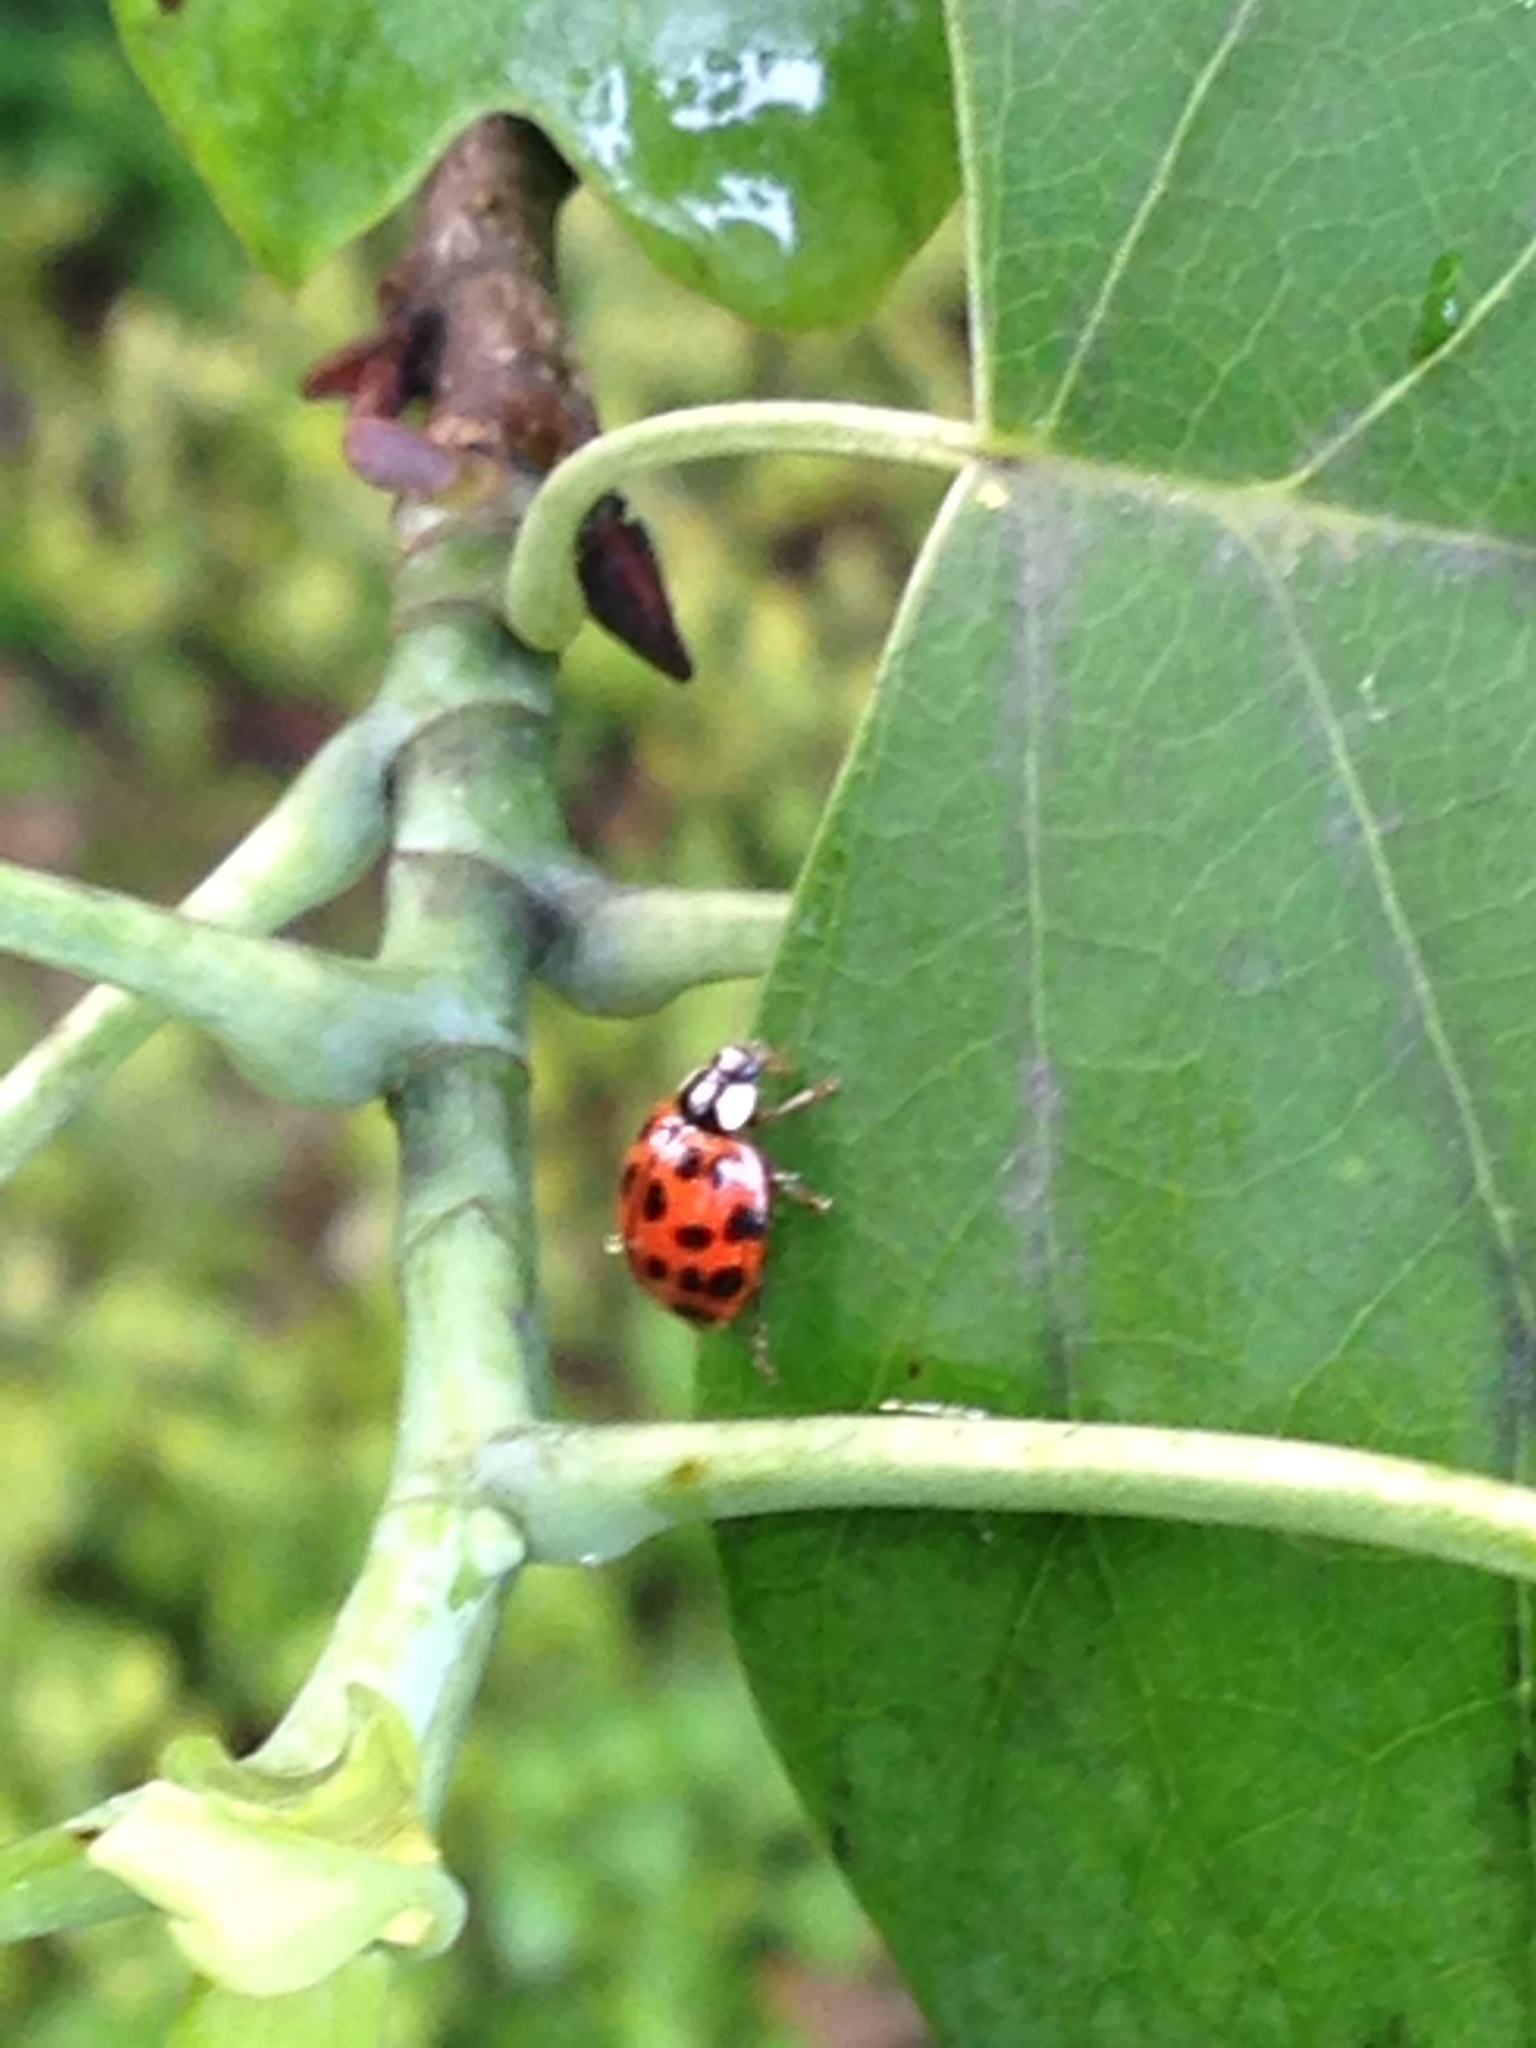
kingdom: Animalia
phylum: Arthropoda
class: Insecta
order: Coleoptera
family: Coccinellidae
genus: Harmonia
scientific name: Harmonia axyridis
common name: Harlequin ladybird
